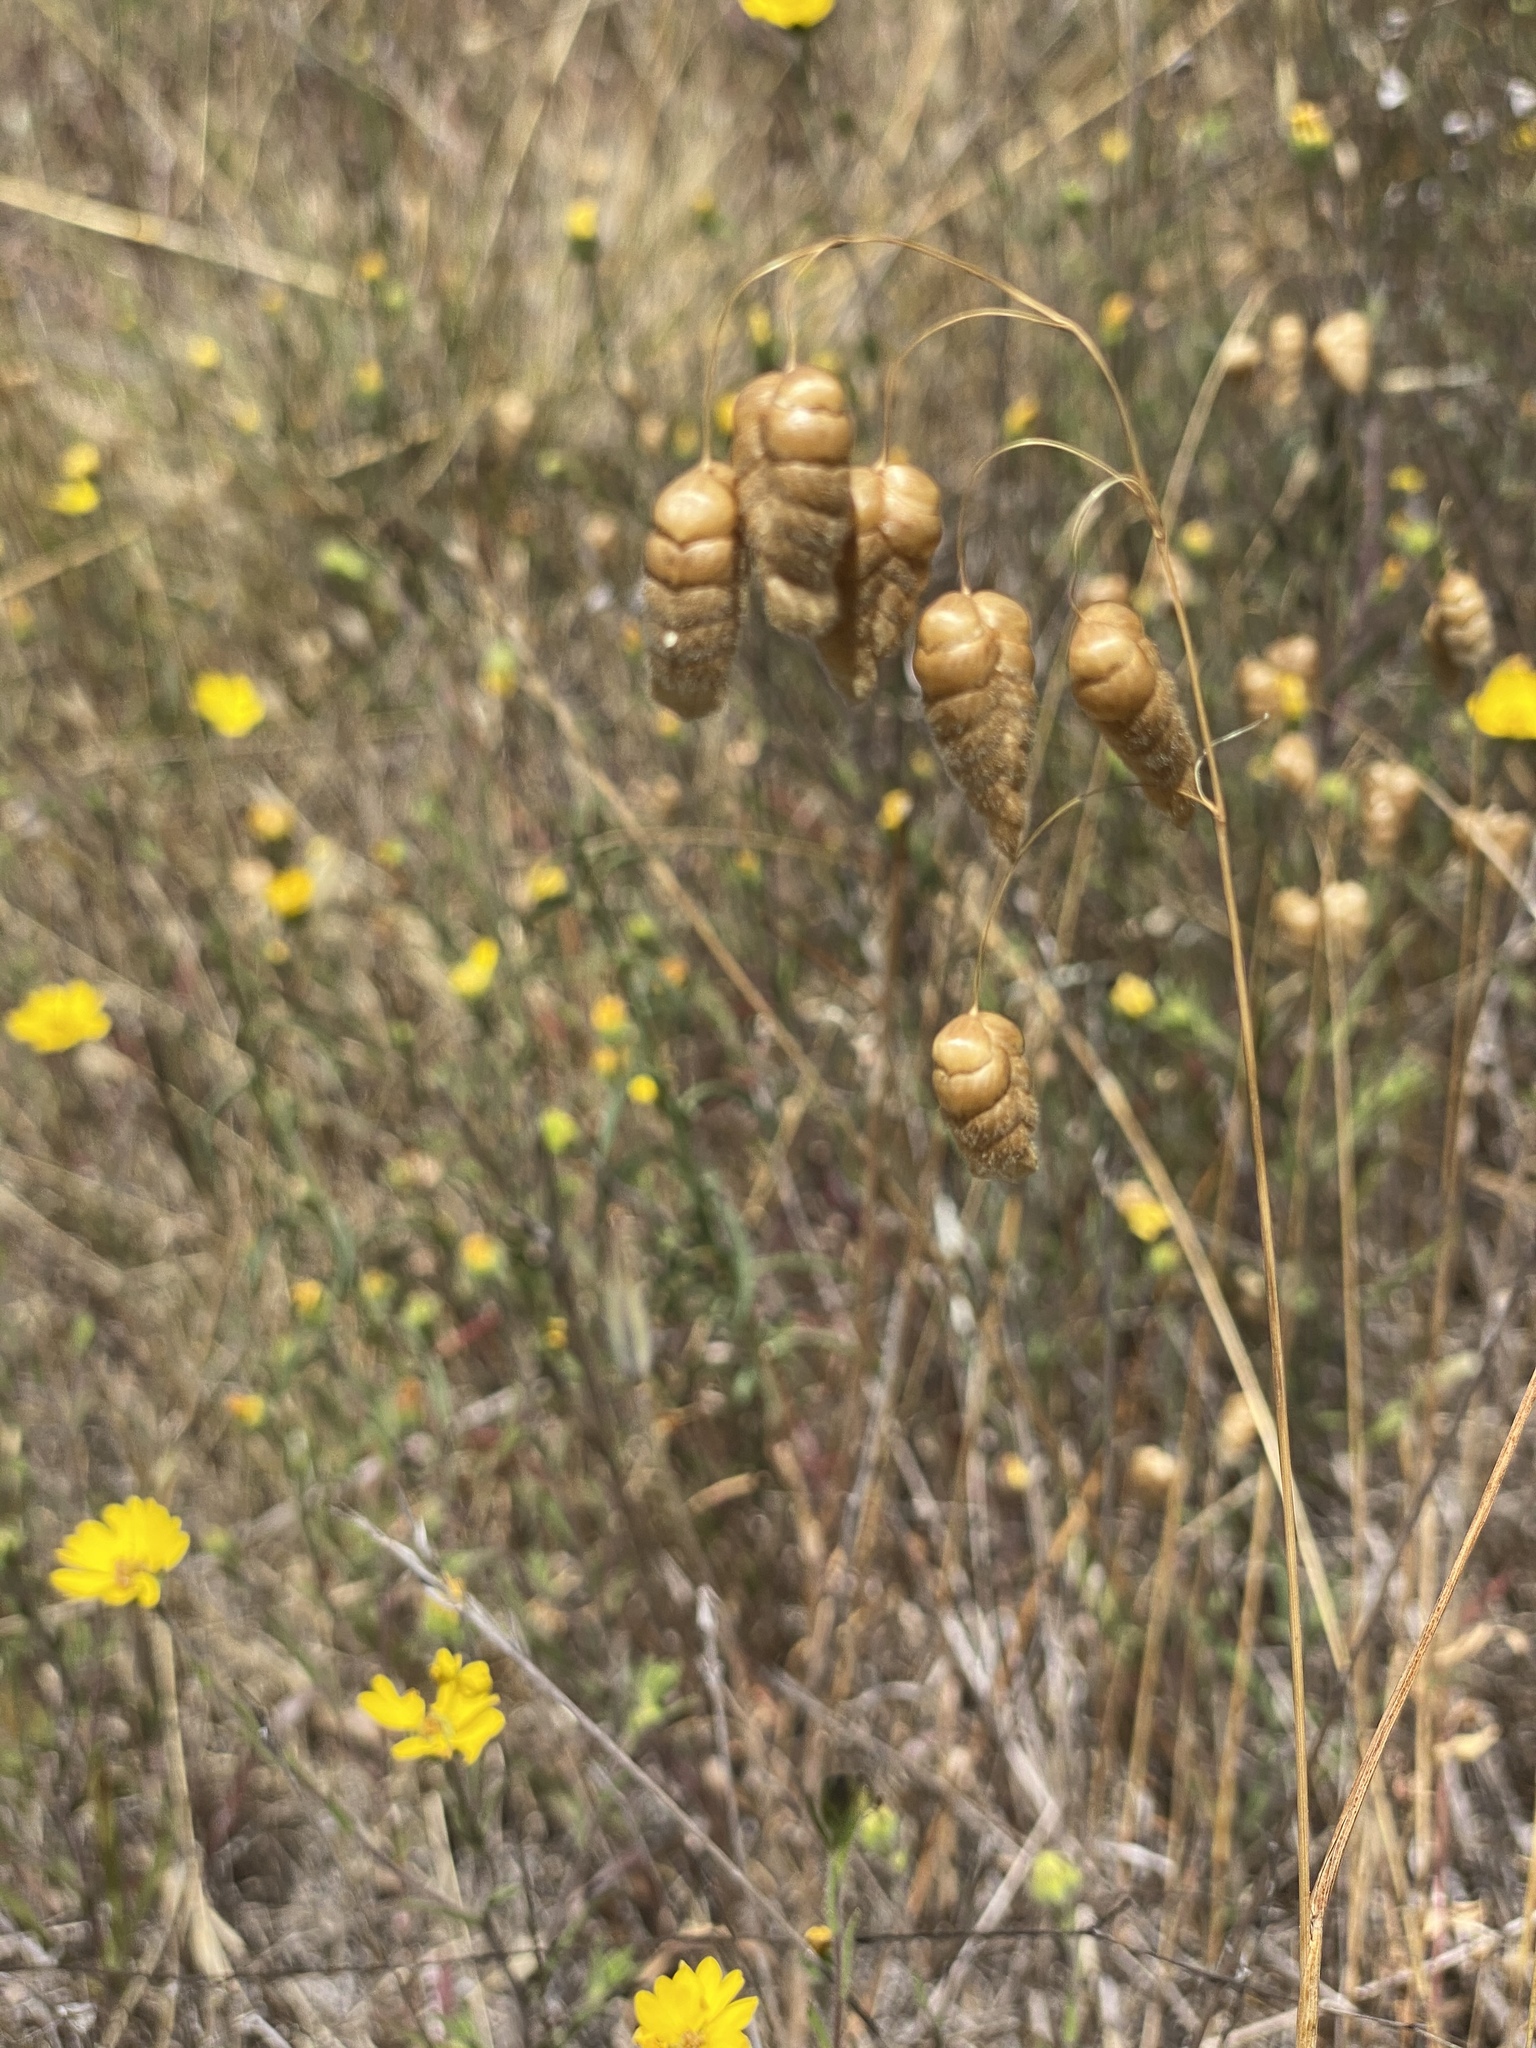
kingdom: Plantae
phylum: Tracheophyta
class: Liliopsida
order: Poales
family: Poaceae
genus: Briza
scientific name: Briza maxima
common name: Big quakinggrass
